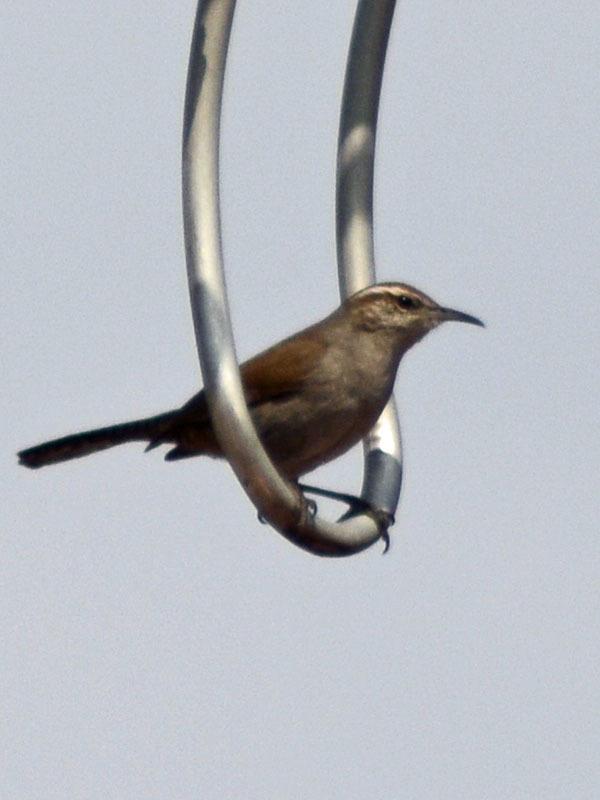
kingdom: Animalia
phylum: Chordata
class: Aves
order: Passeriformes
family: Troglodytidae
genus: Thryomanes
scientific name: Thryomanes bewickii
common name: Bewick's wren
